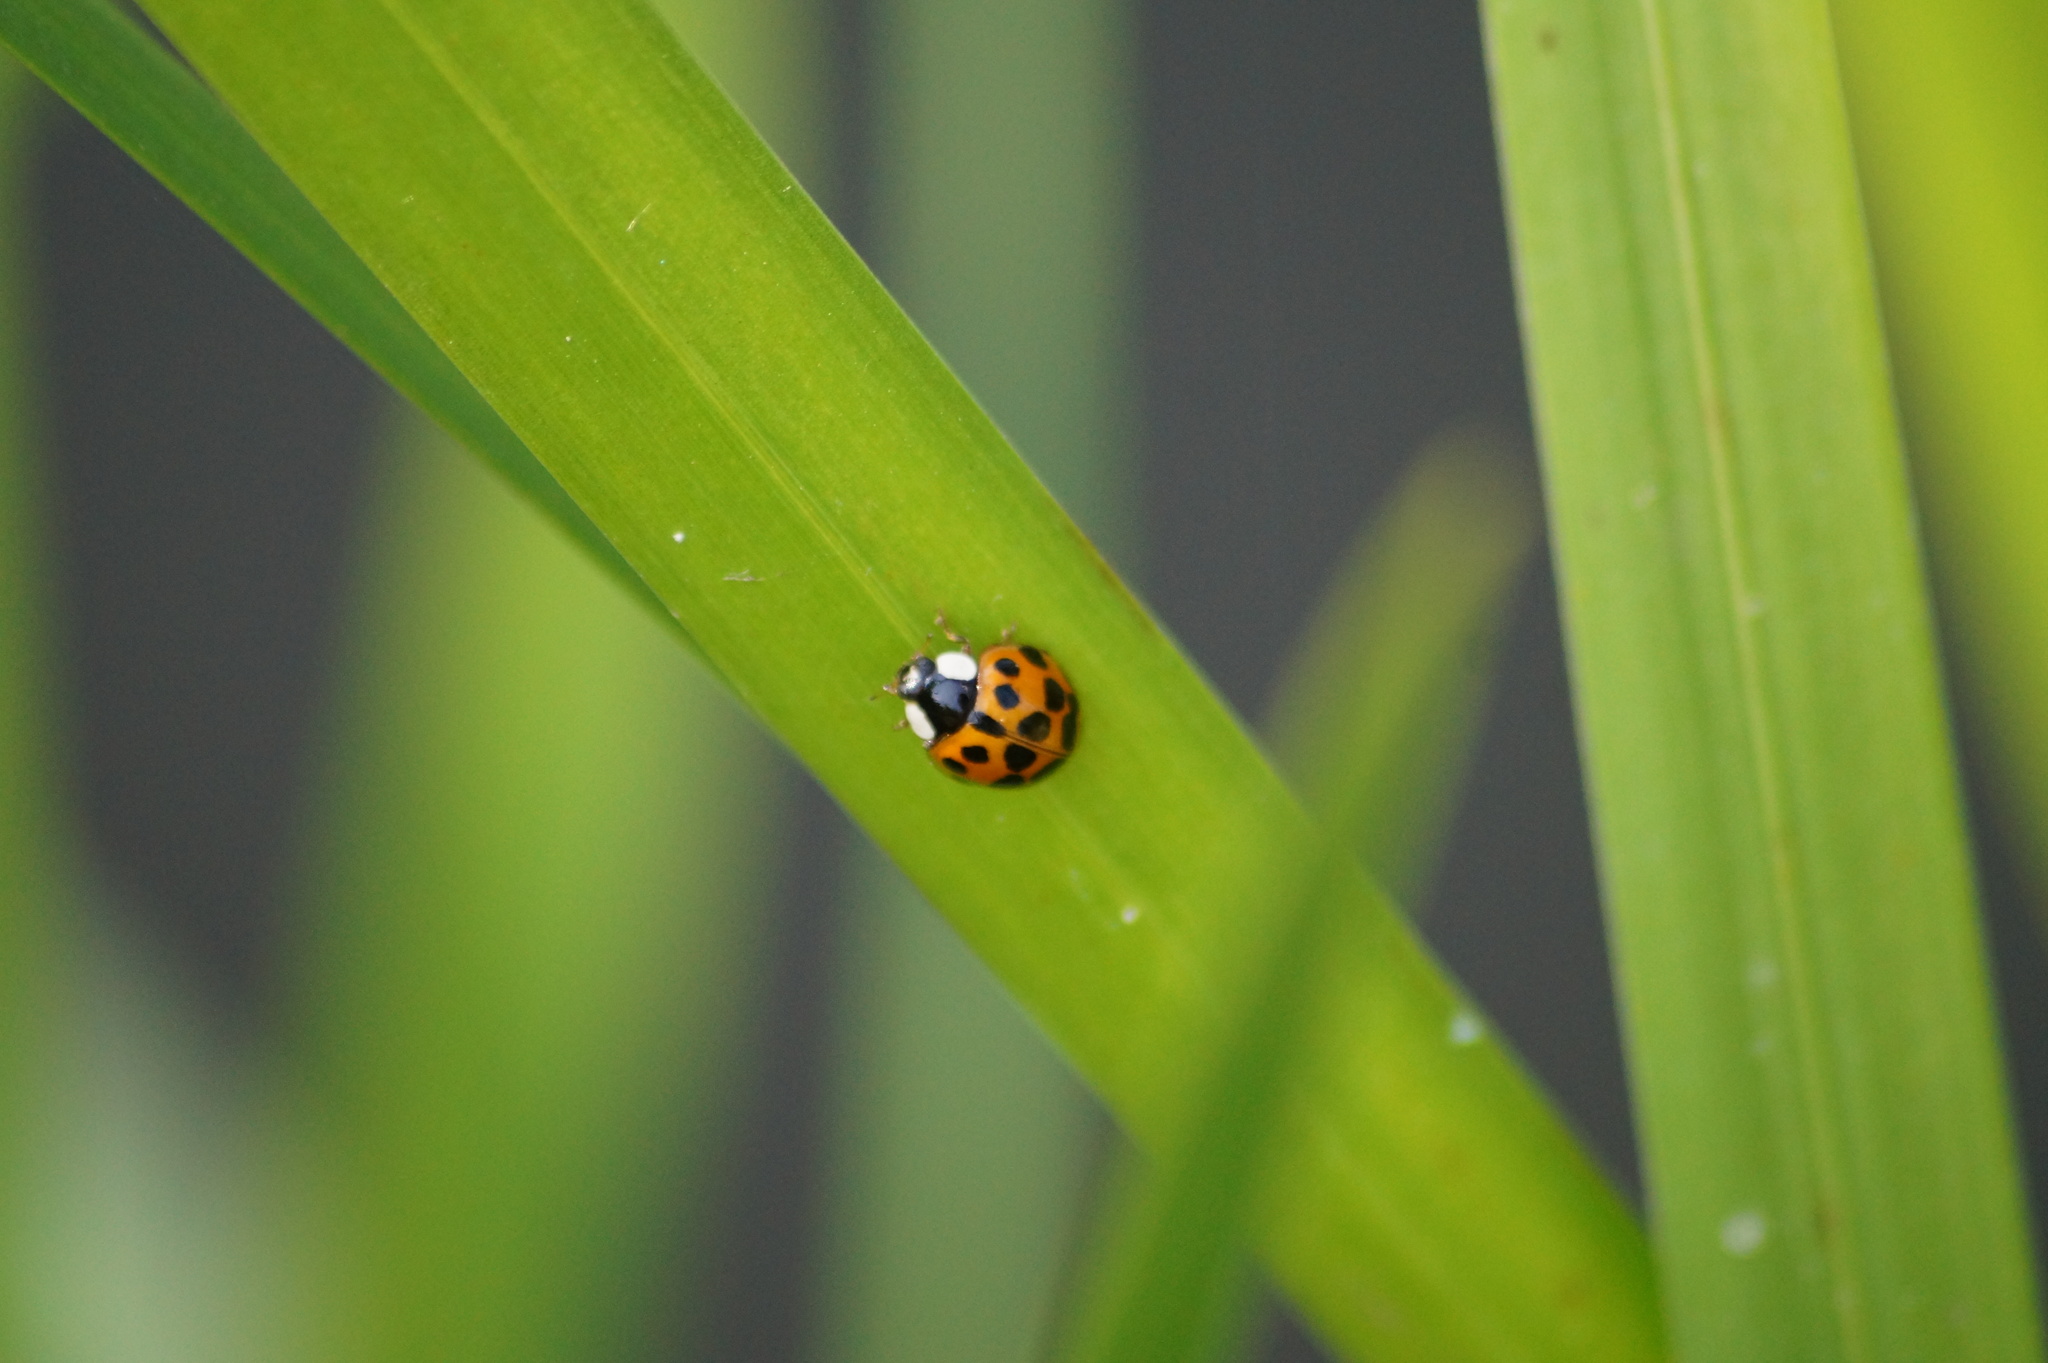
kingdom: Animalia
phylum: Arthropoda
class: Insecta
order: Coleoptera
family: Coccinellidae
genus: Harmonia
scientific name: Harmonia axyridis
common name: Harlequin ladybird
